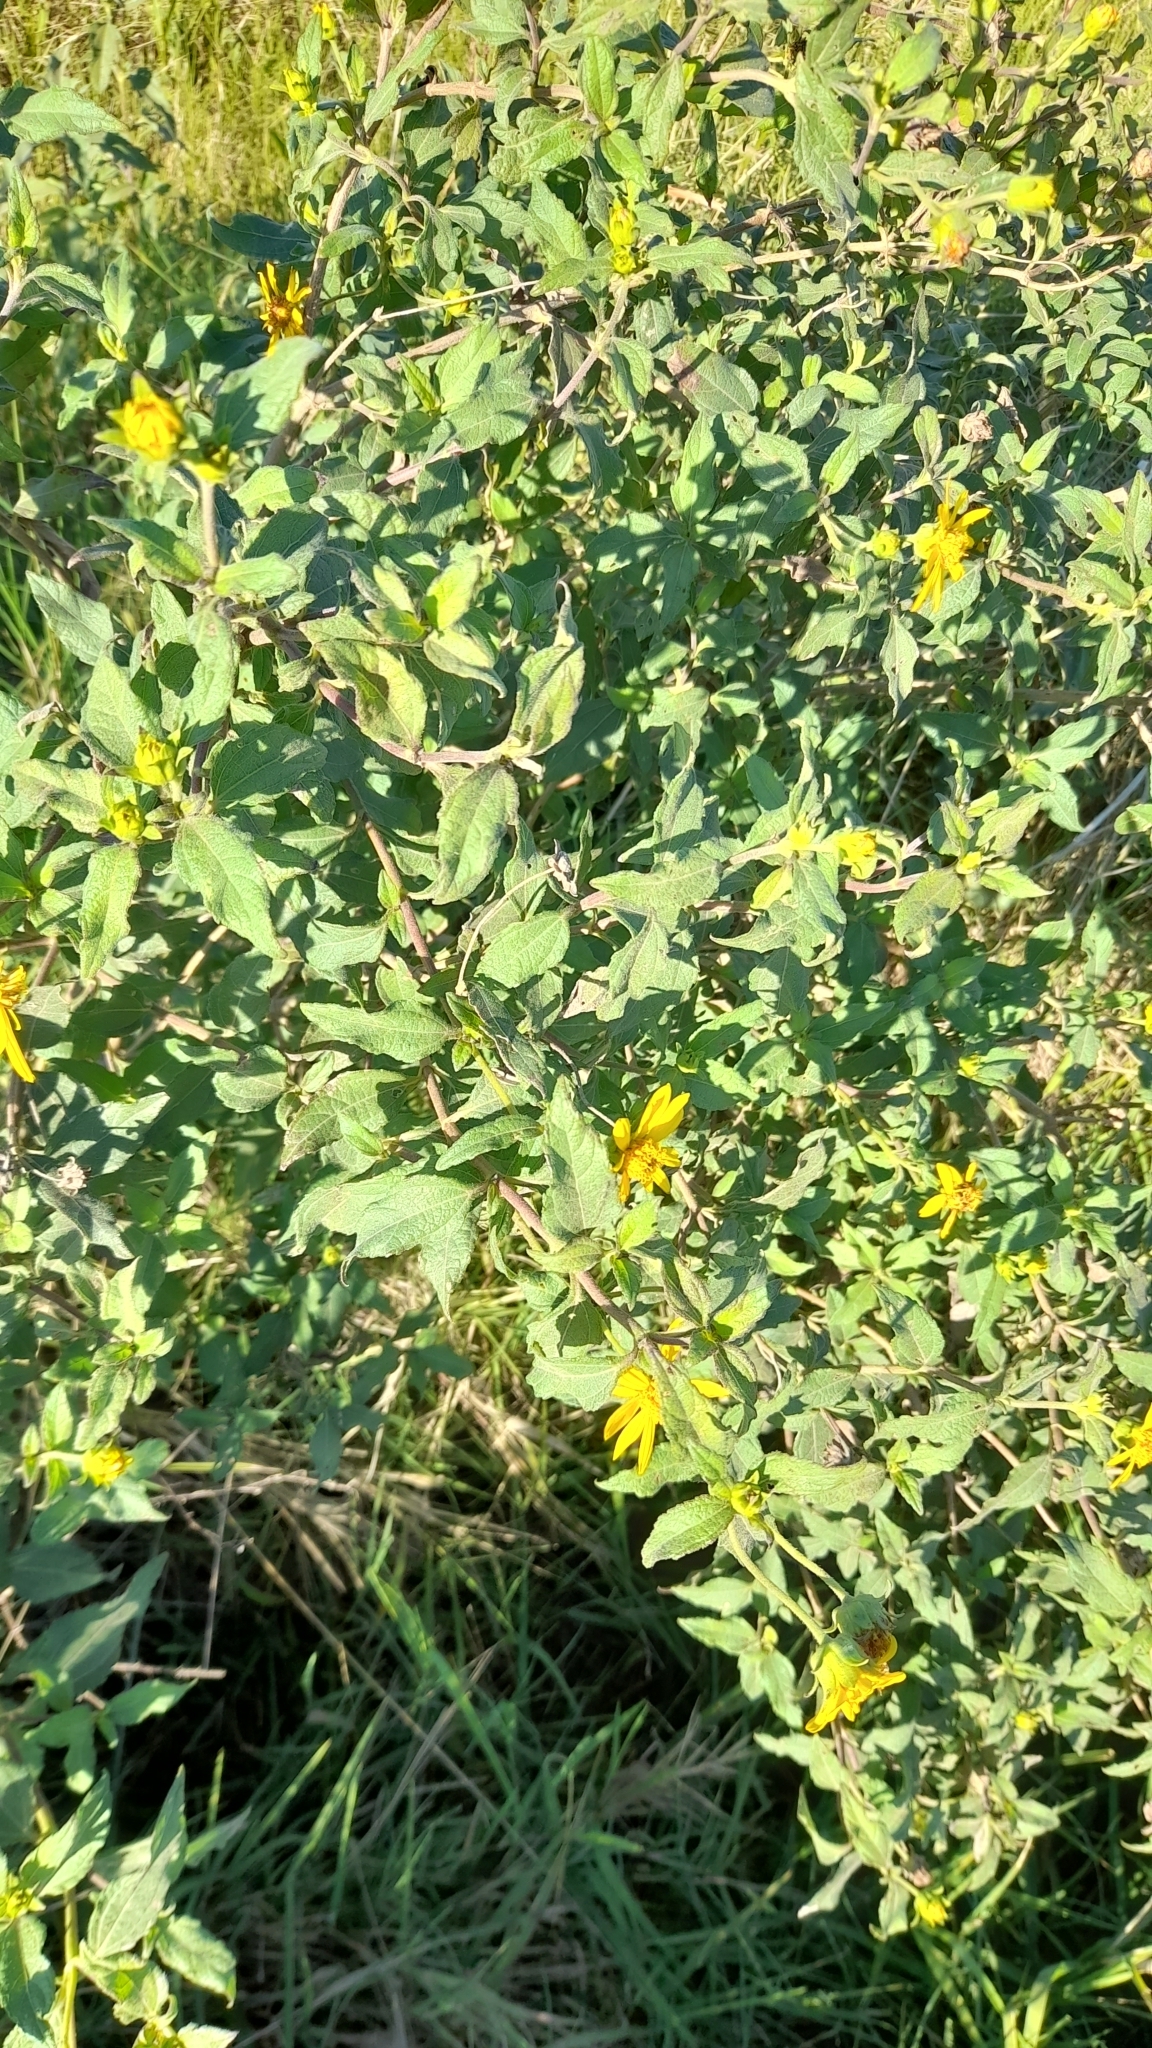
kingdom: Plantae
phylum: Tracheophyta
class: Magnoliopsida
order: Asterales
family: Asteraceae
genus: Wedelia
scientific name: Wedelia silphioides
